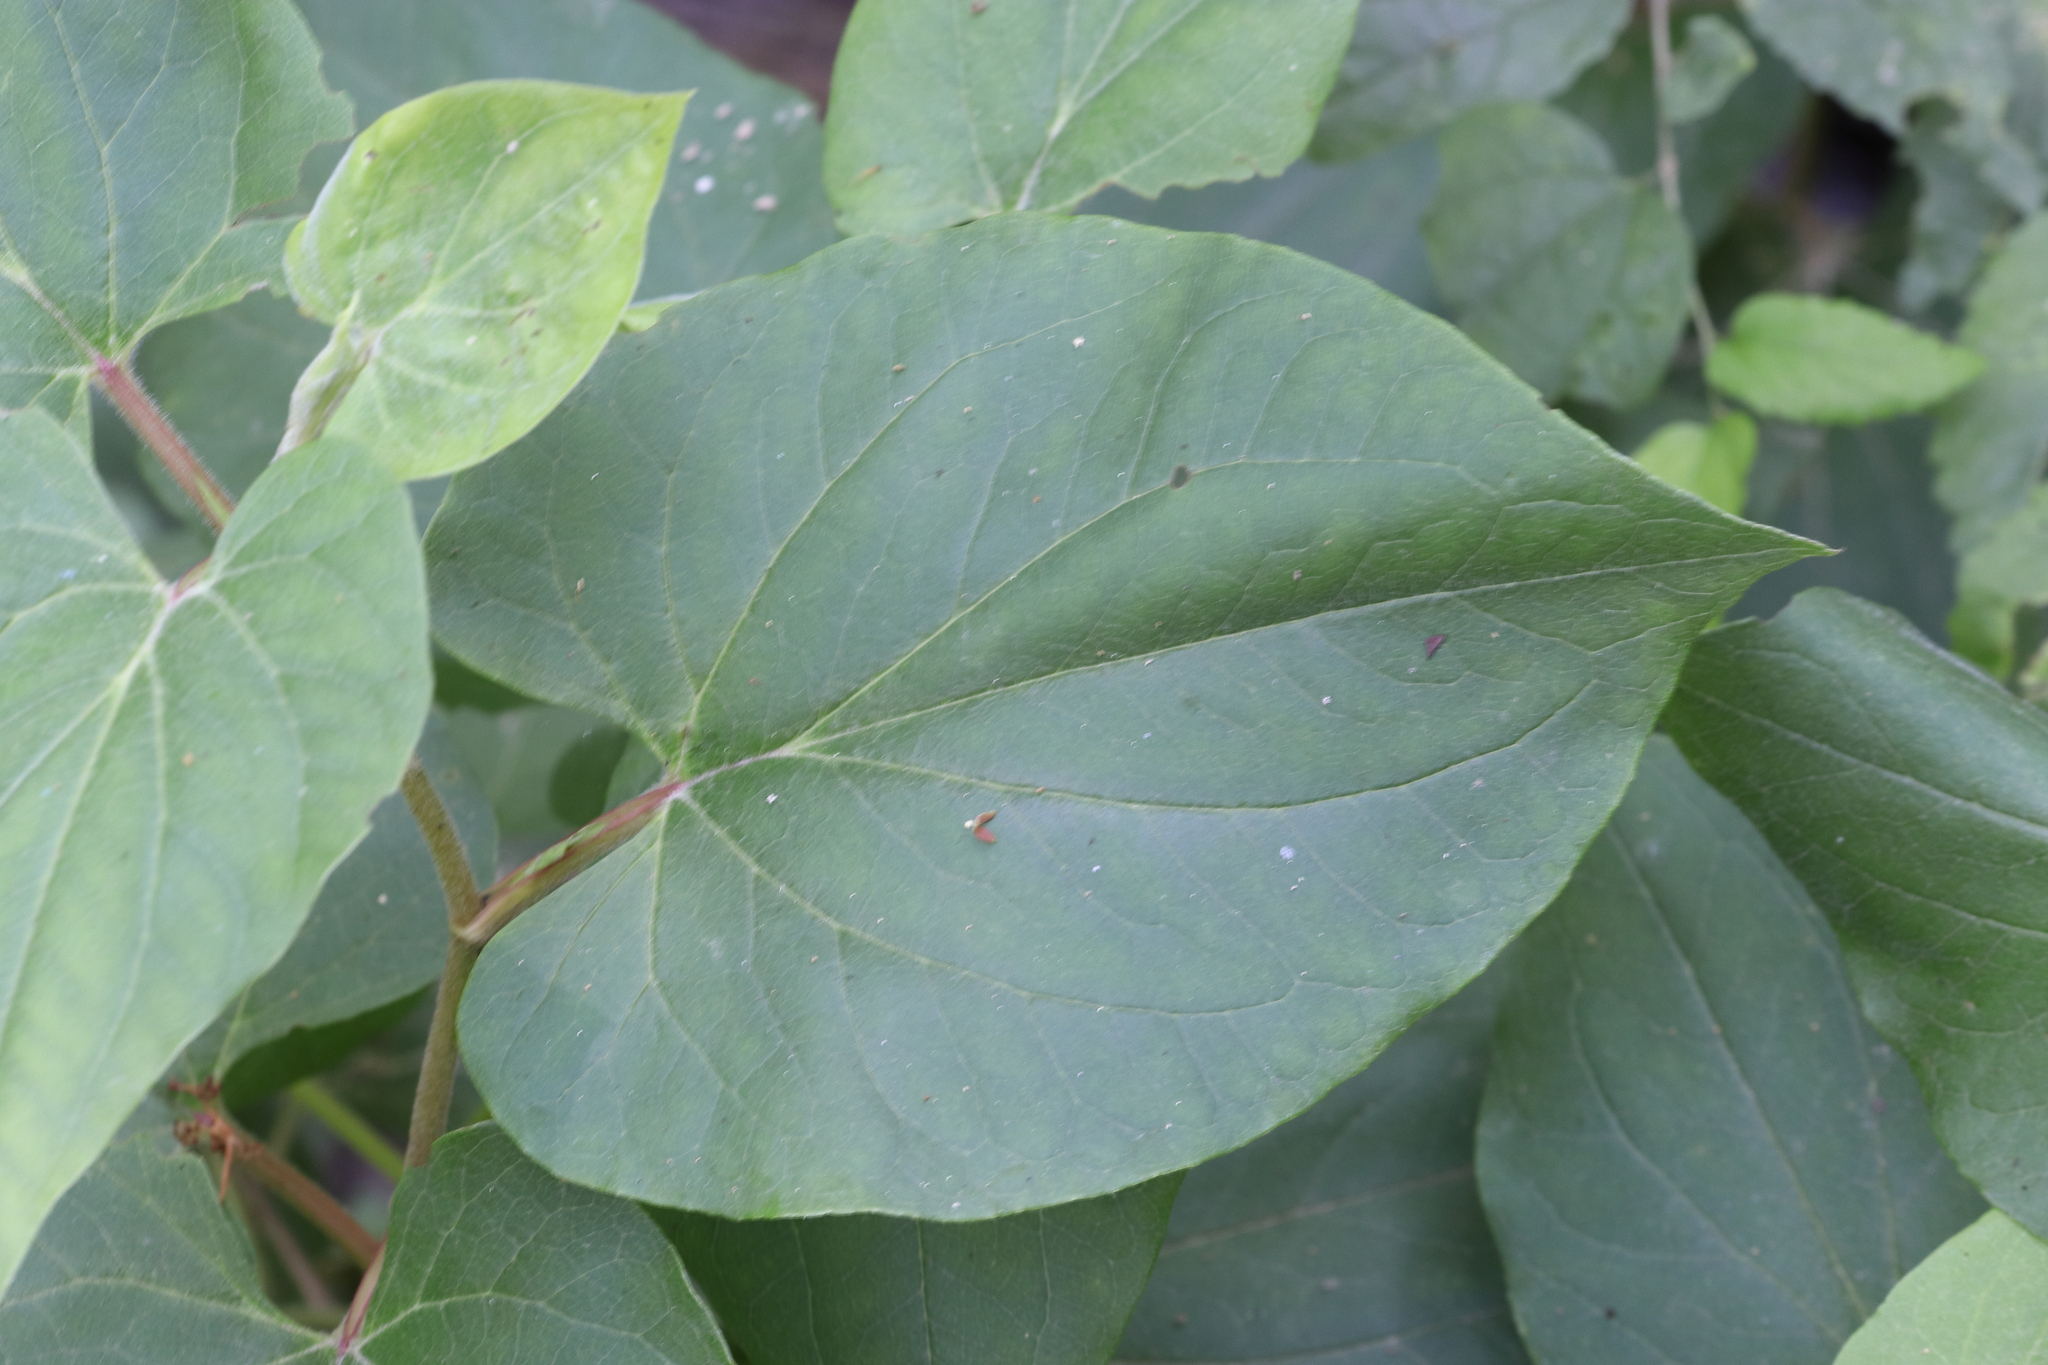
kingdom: Plantae
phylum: Tracheophyta
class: Magnoliopsida
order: Piperales
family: Saururaceae
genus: Saururus
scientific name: Saururus cernuus
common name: Lizard's-tail
